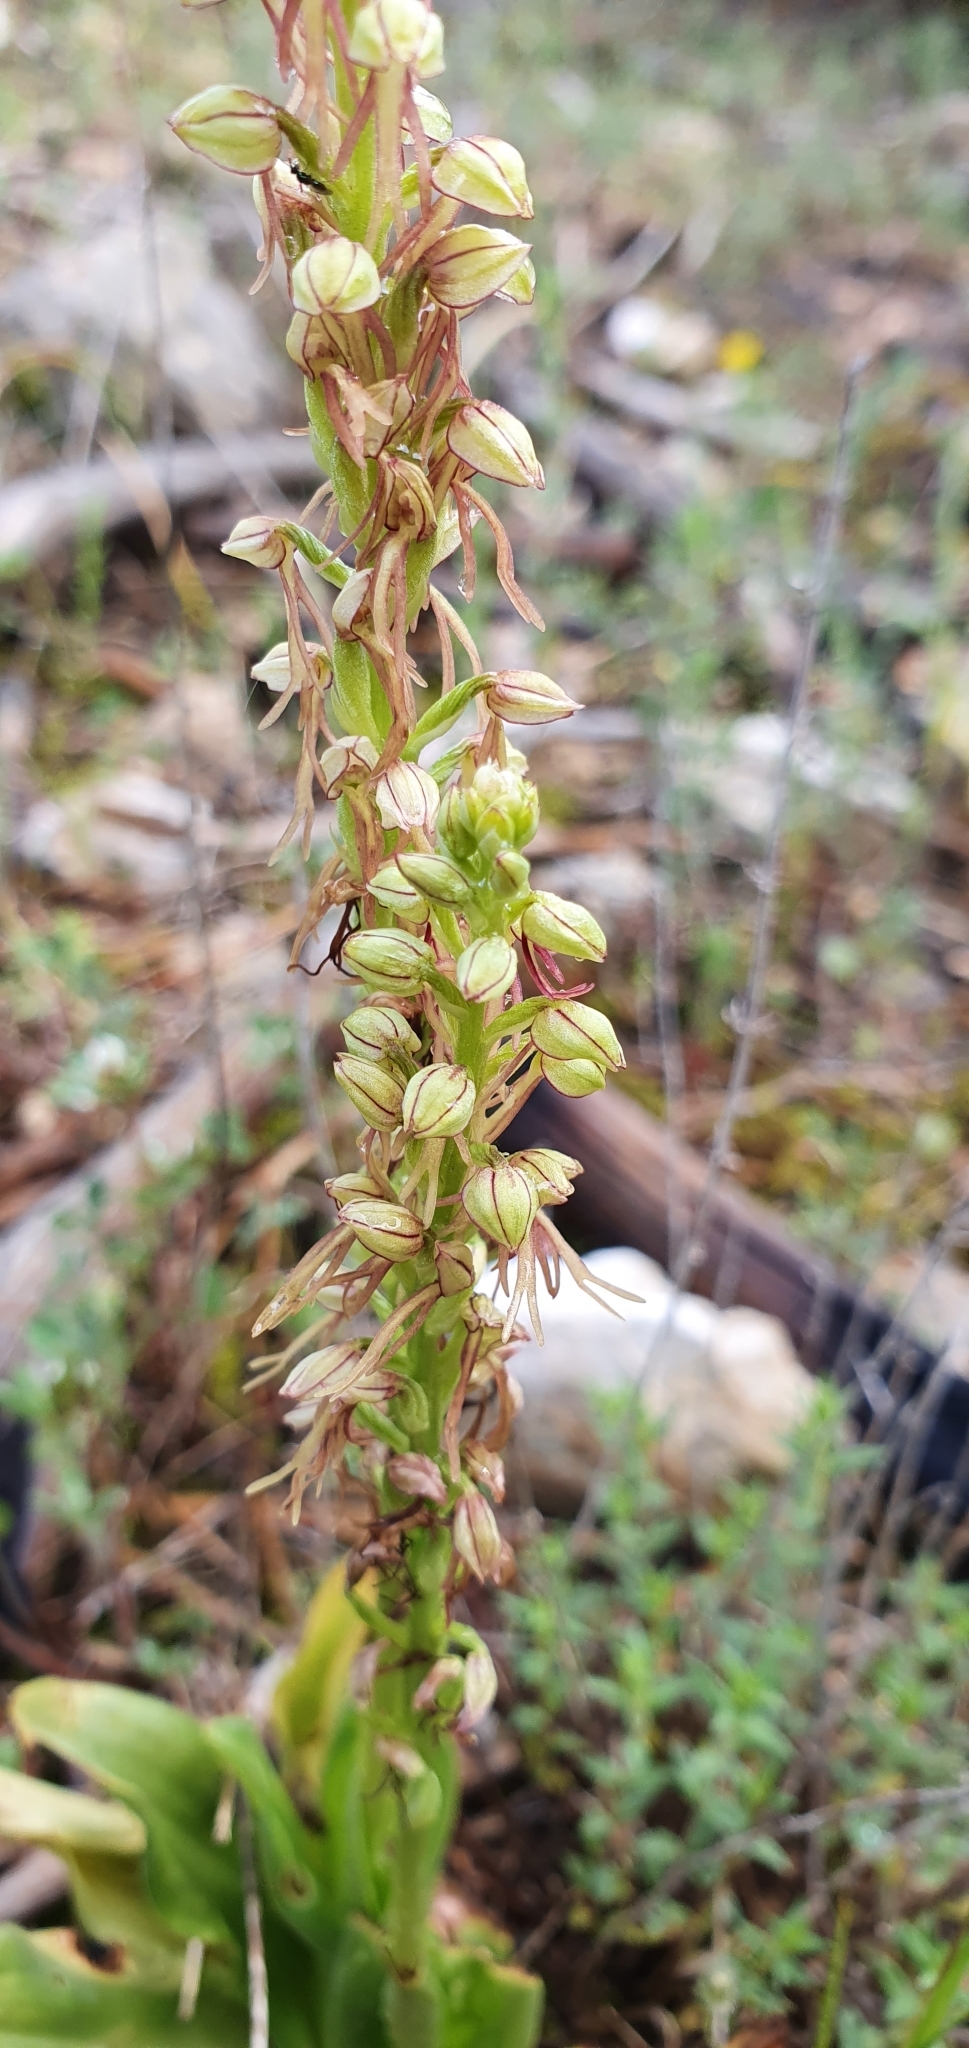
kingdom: Plantae
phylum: Tracheophyta
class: Liliopsida
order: Asparagales
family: Orchidaceae
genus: Orchis
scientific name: Orchis anthropophora
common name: Man orchid
